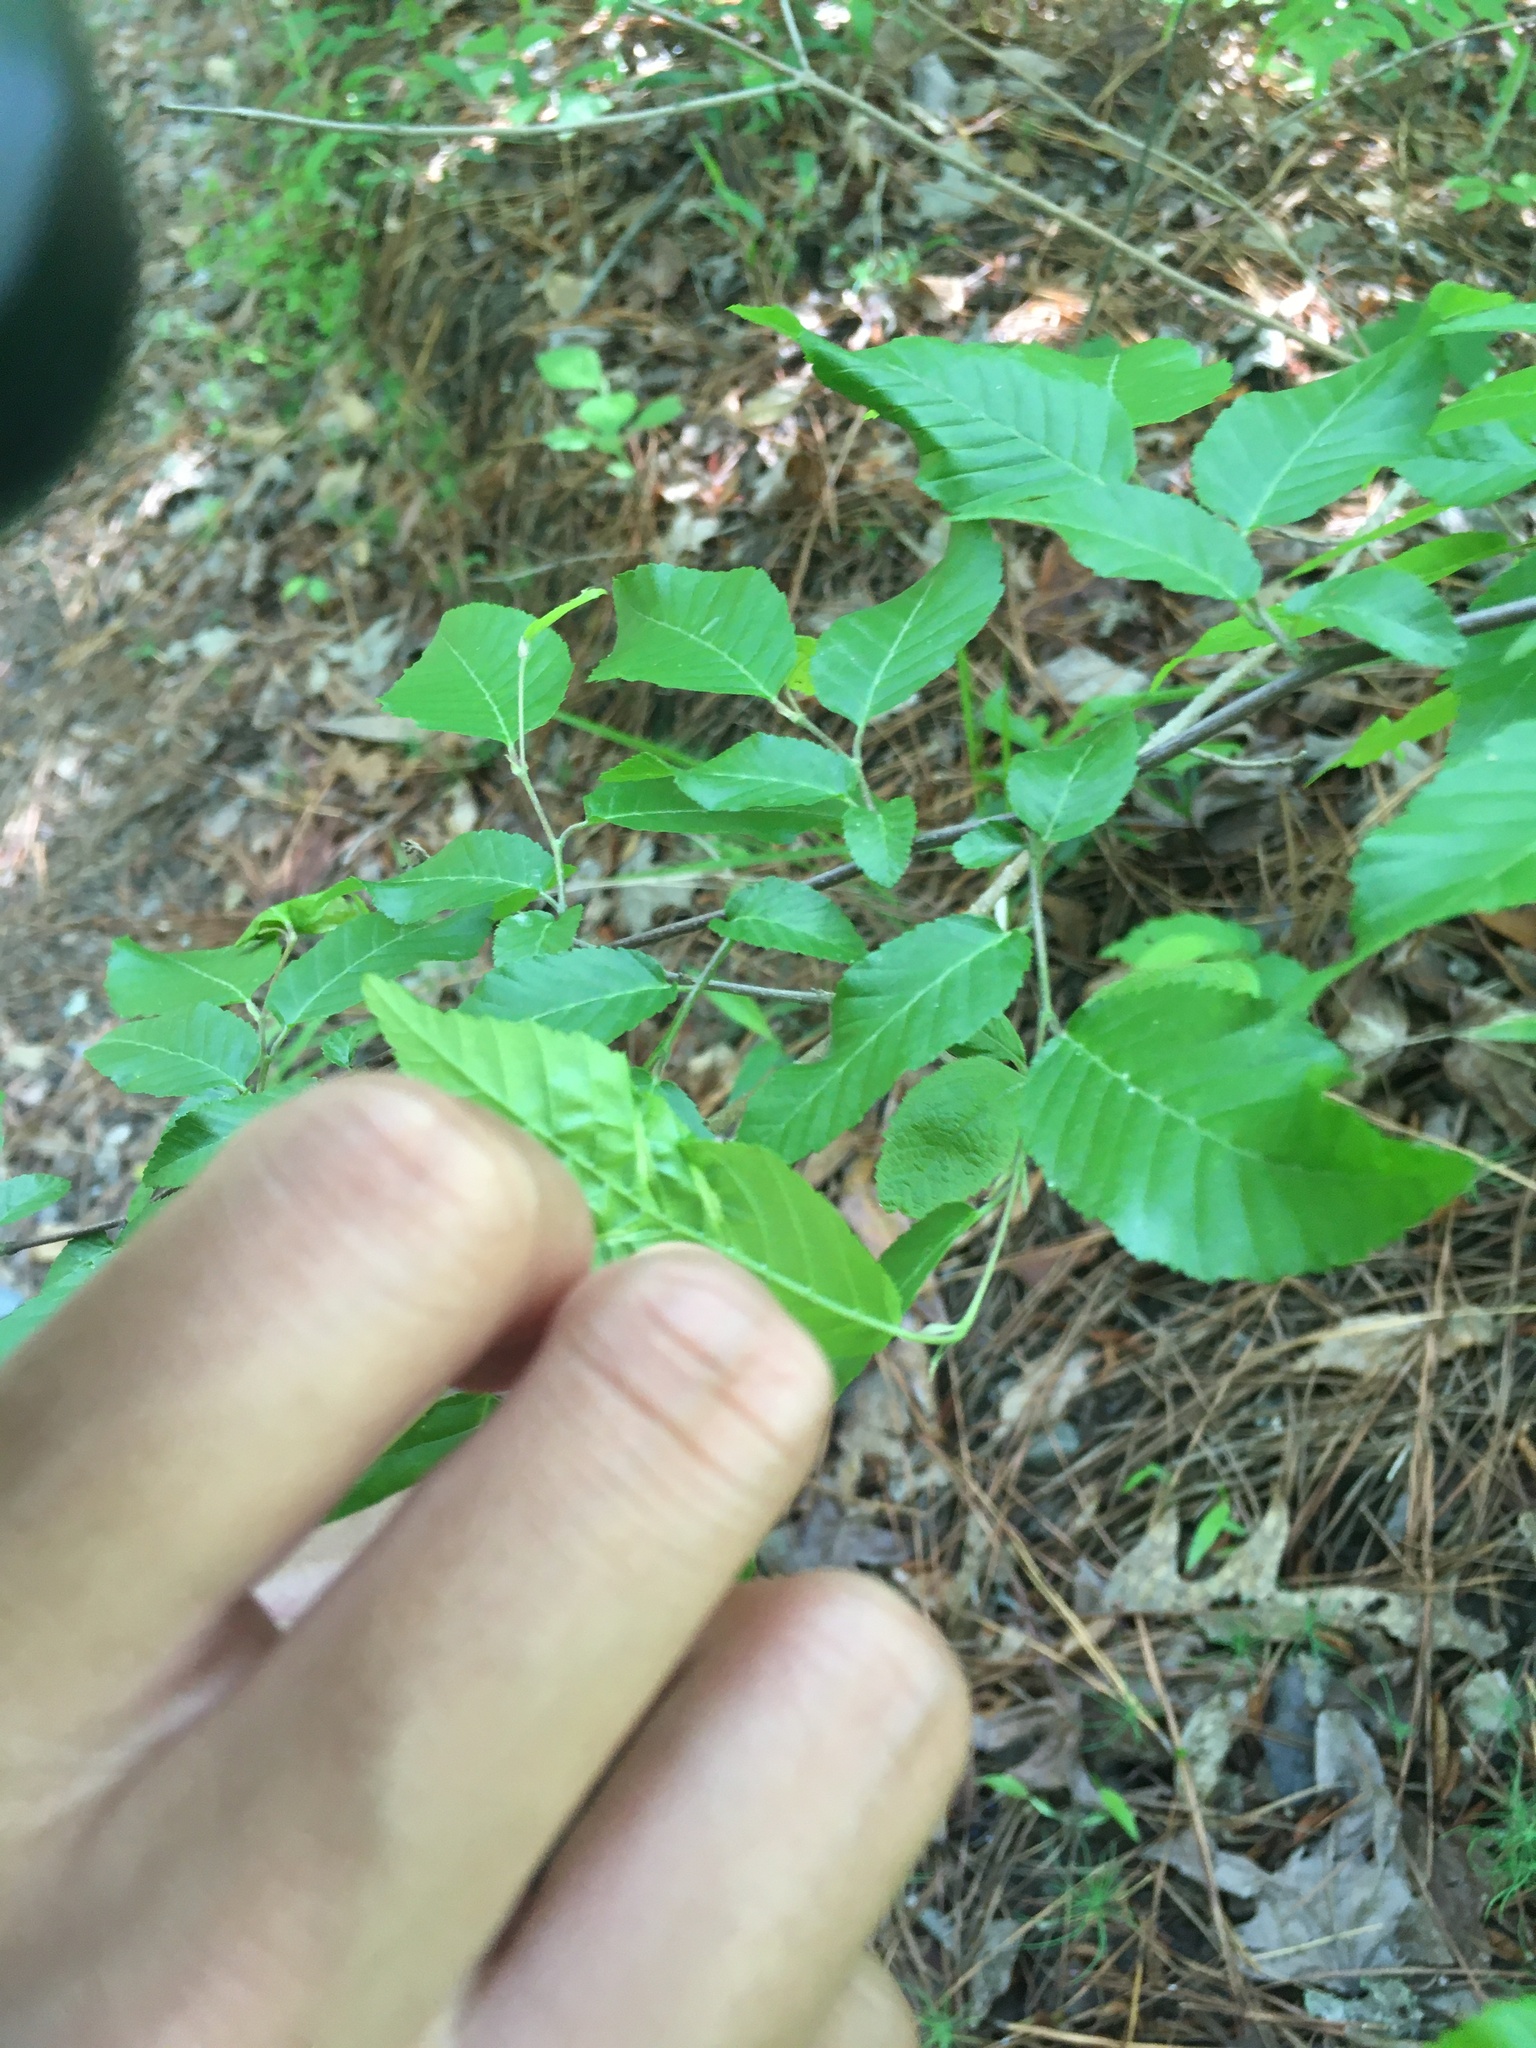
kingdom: Animalia
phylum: Arthropoda
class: Insecta
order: Diptera
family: Cecidomyiidae
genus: Dasineura
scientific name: Dasineura pudibunda
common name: Hornbeam leaf gall midge
